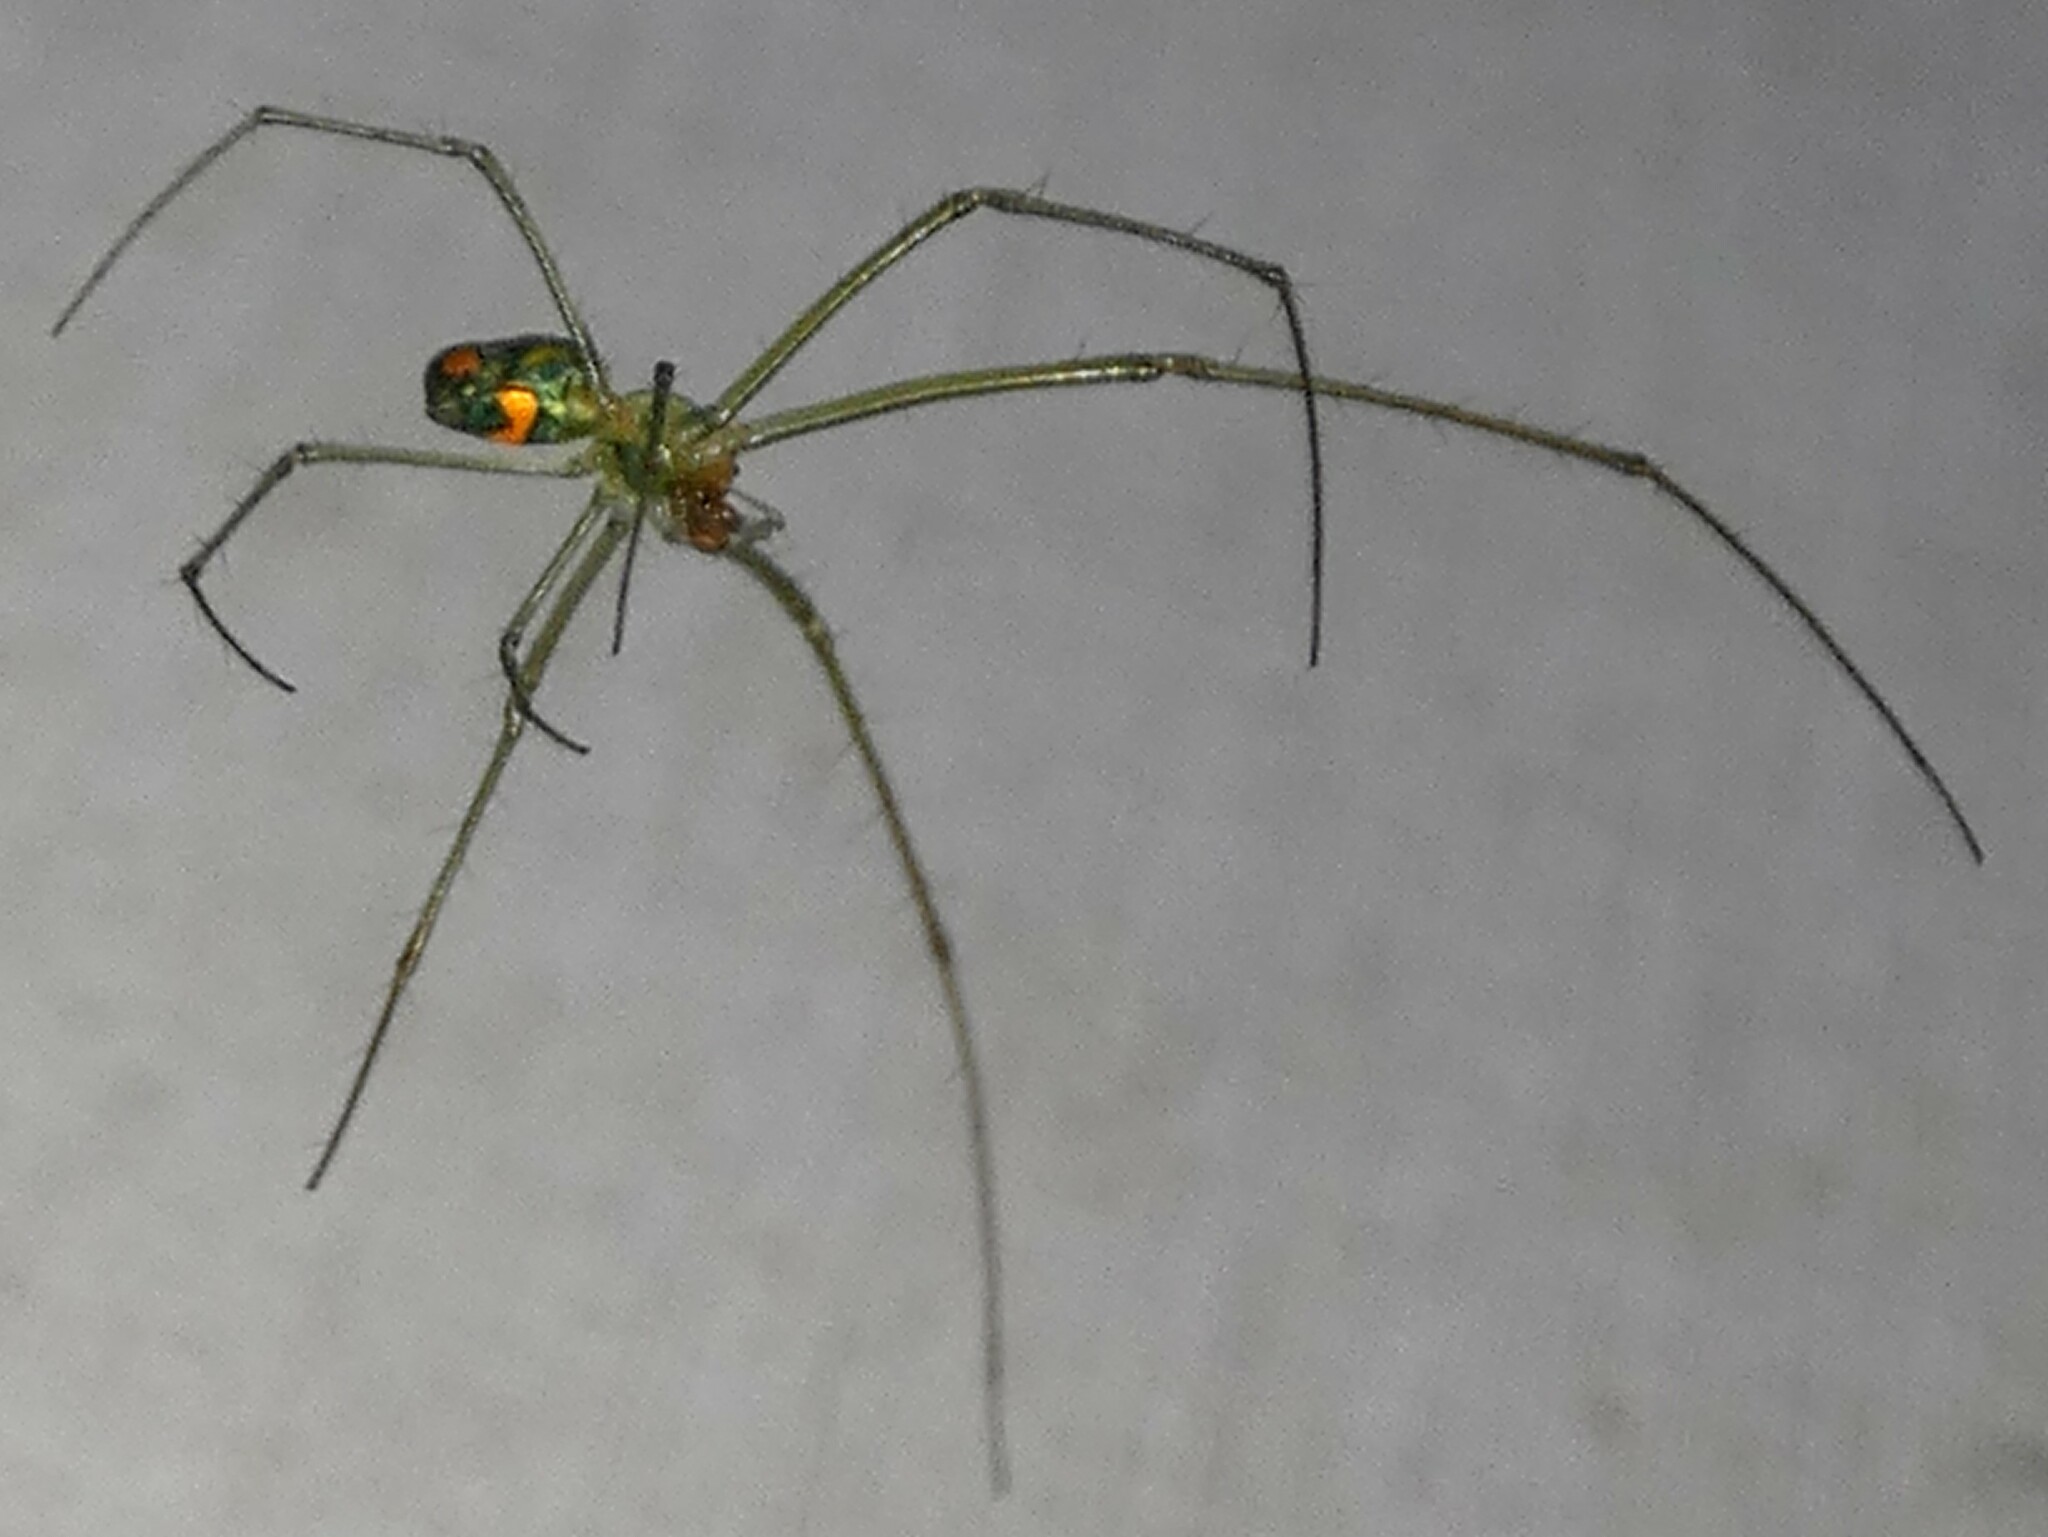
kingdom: Animalia
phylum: Arthropoda
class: Arachnida
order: Araneae
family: Tetragnathidae
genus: Leucauge
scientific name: Leucauge argyrobapta
